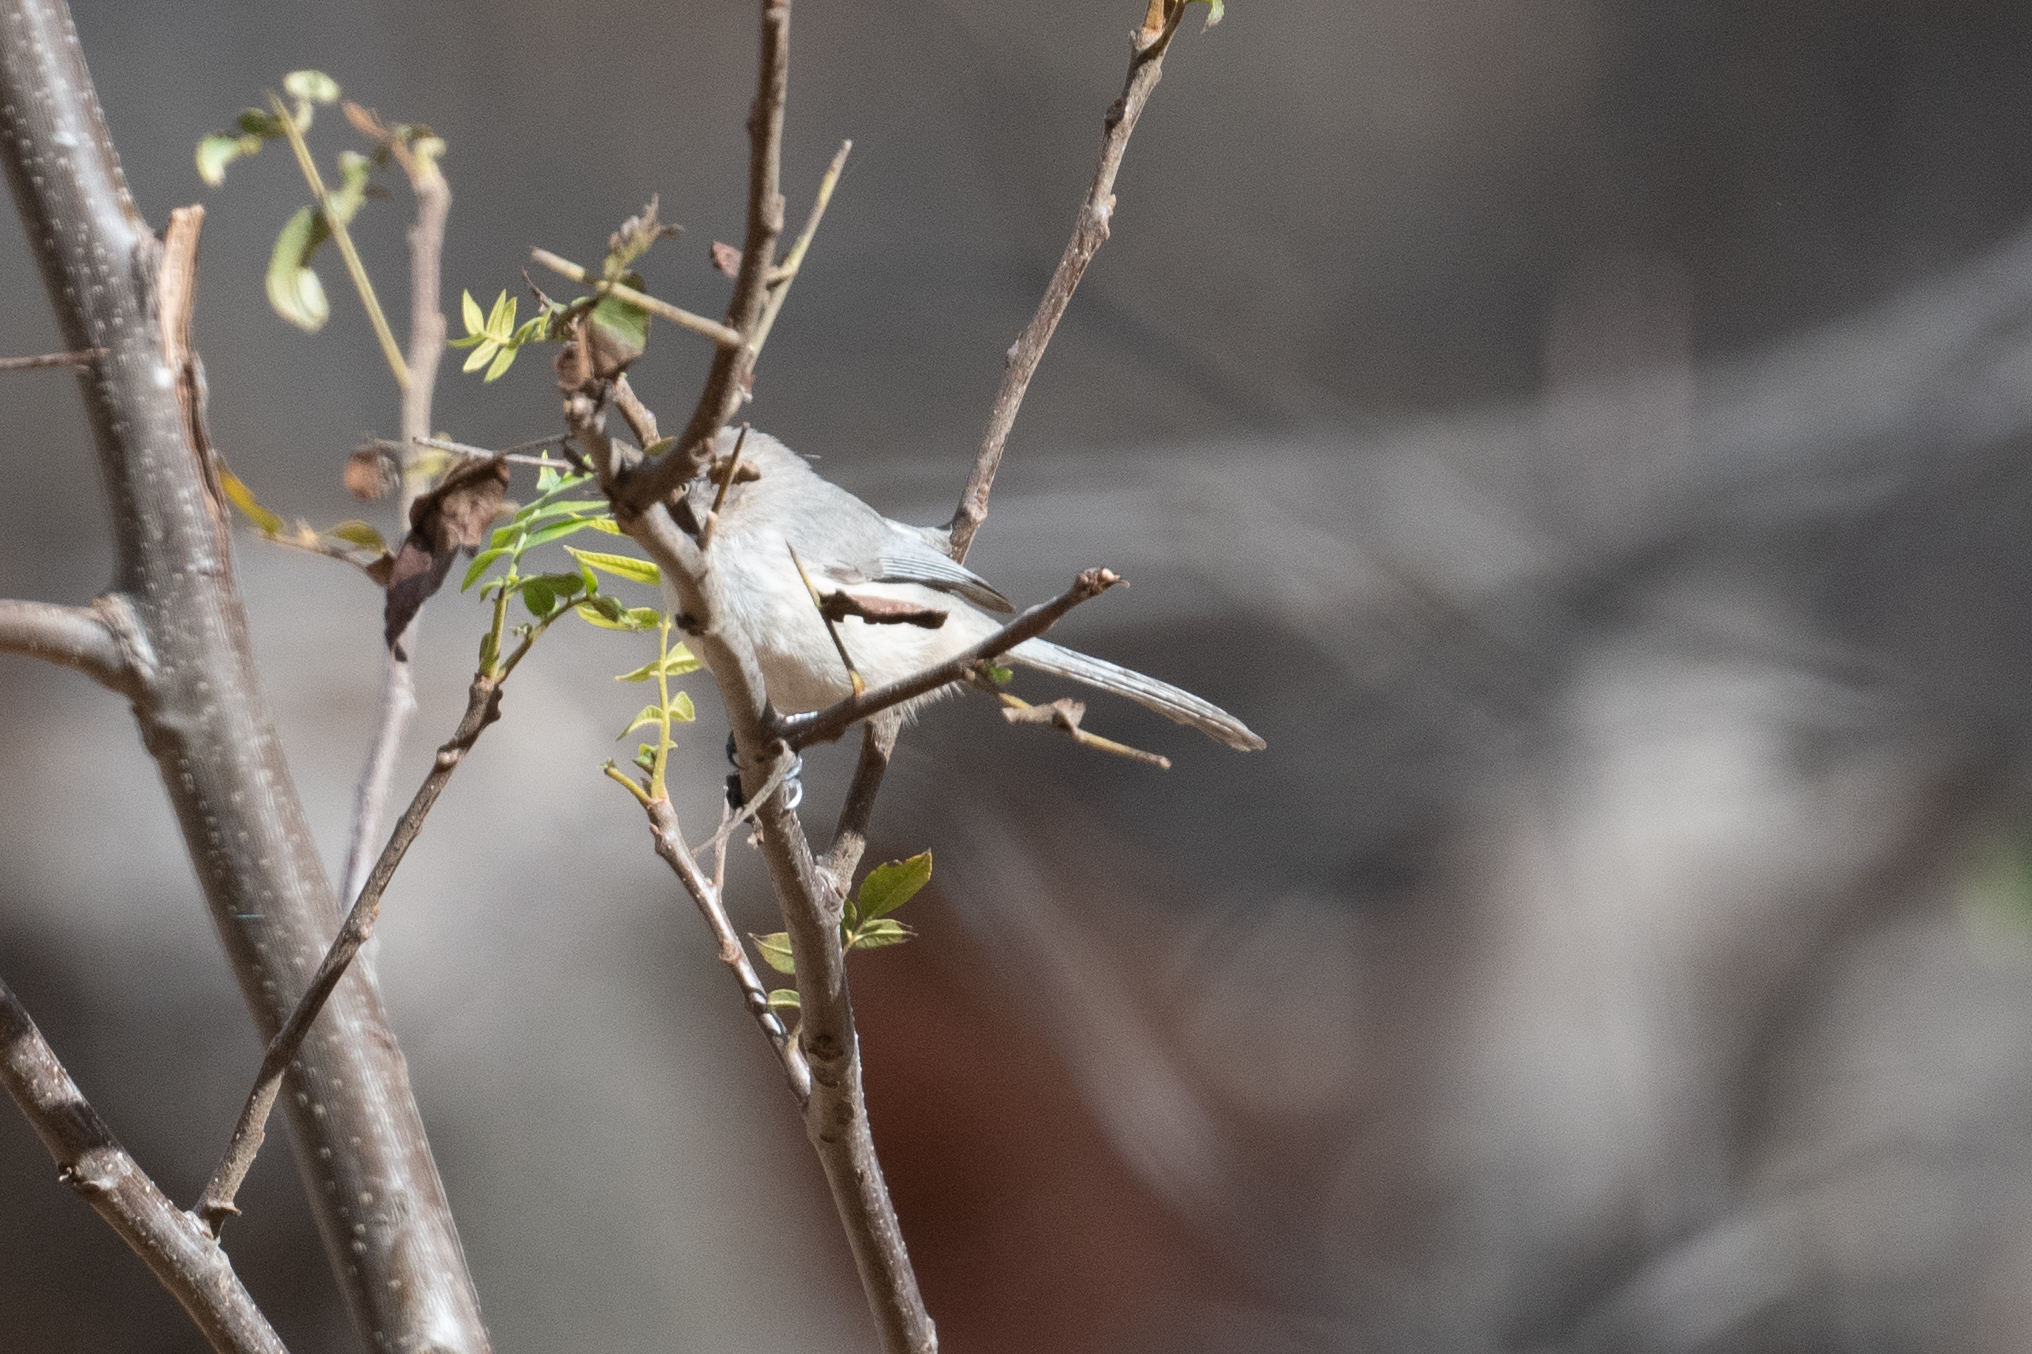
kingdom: Animalia
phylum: Chordata
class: Aves
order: Passeriformes
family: Aegithalidae
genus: Psaltriparus
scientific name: Psaltriparus minimus
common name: American bushtit
